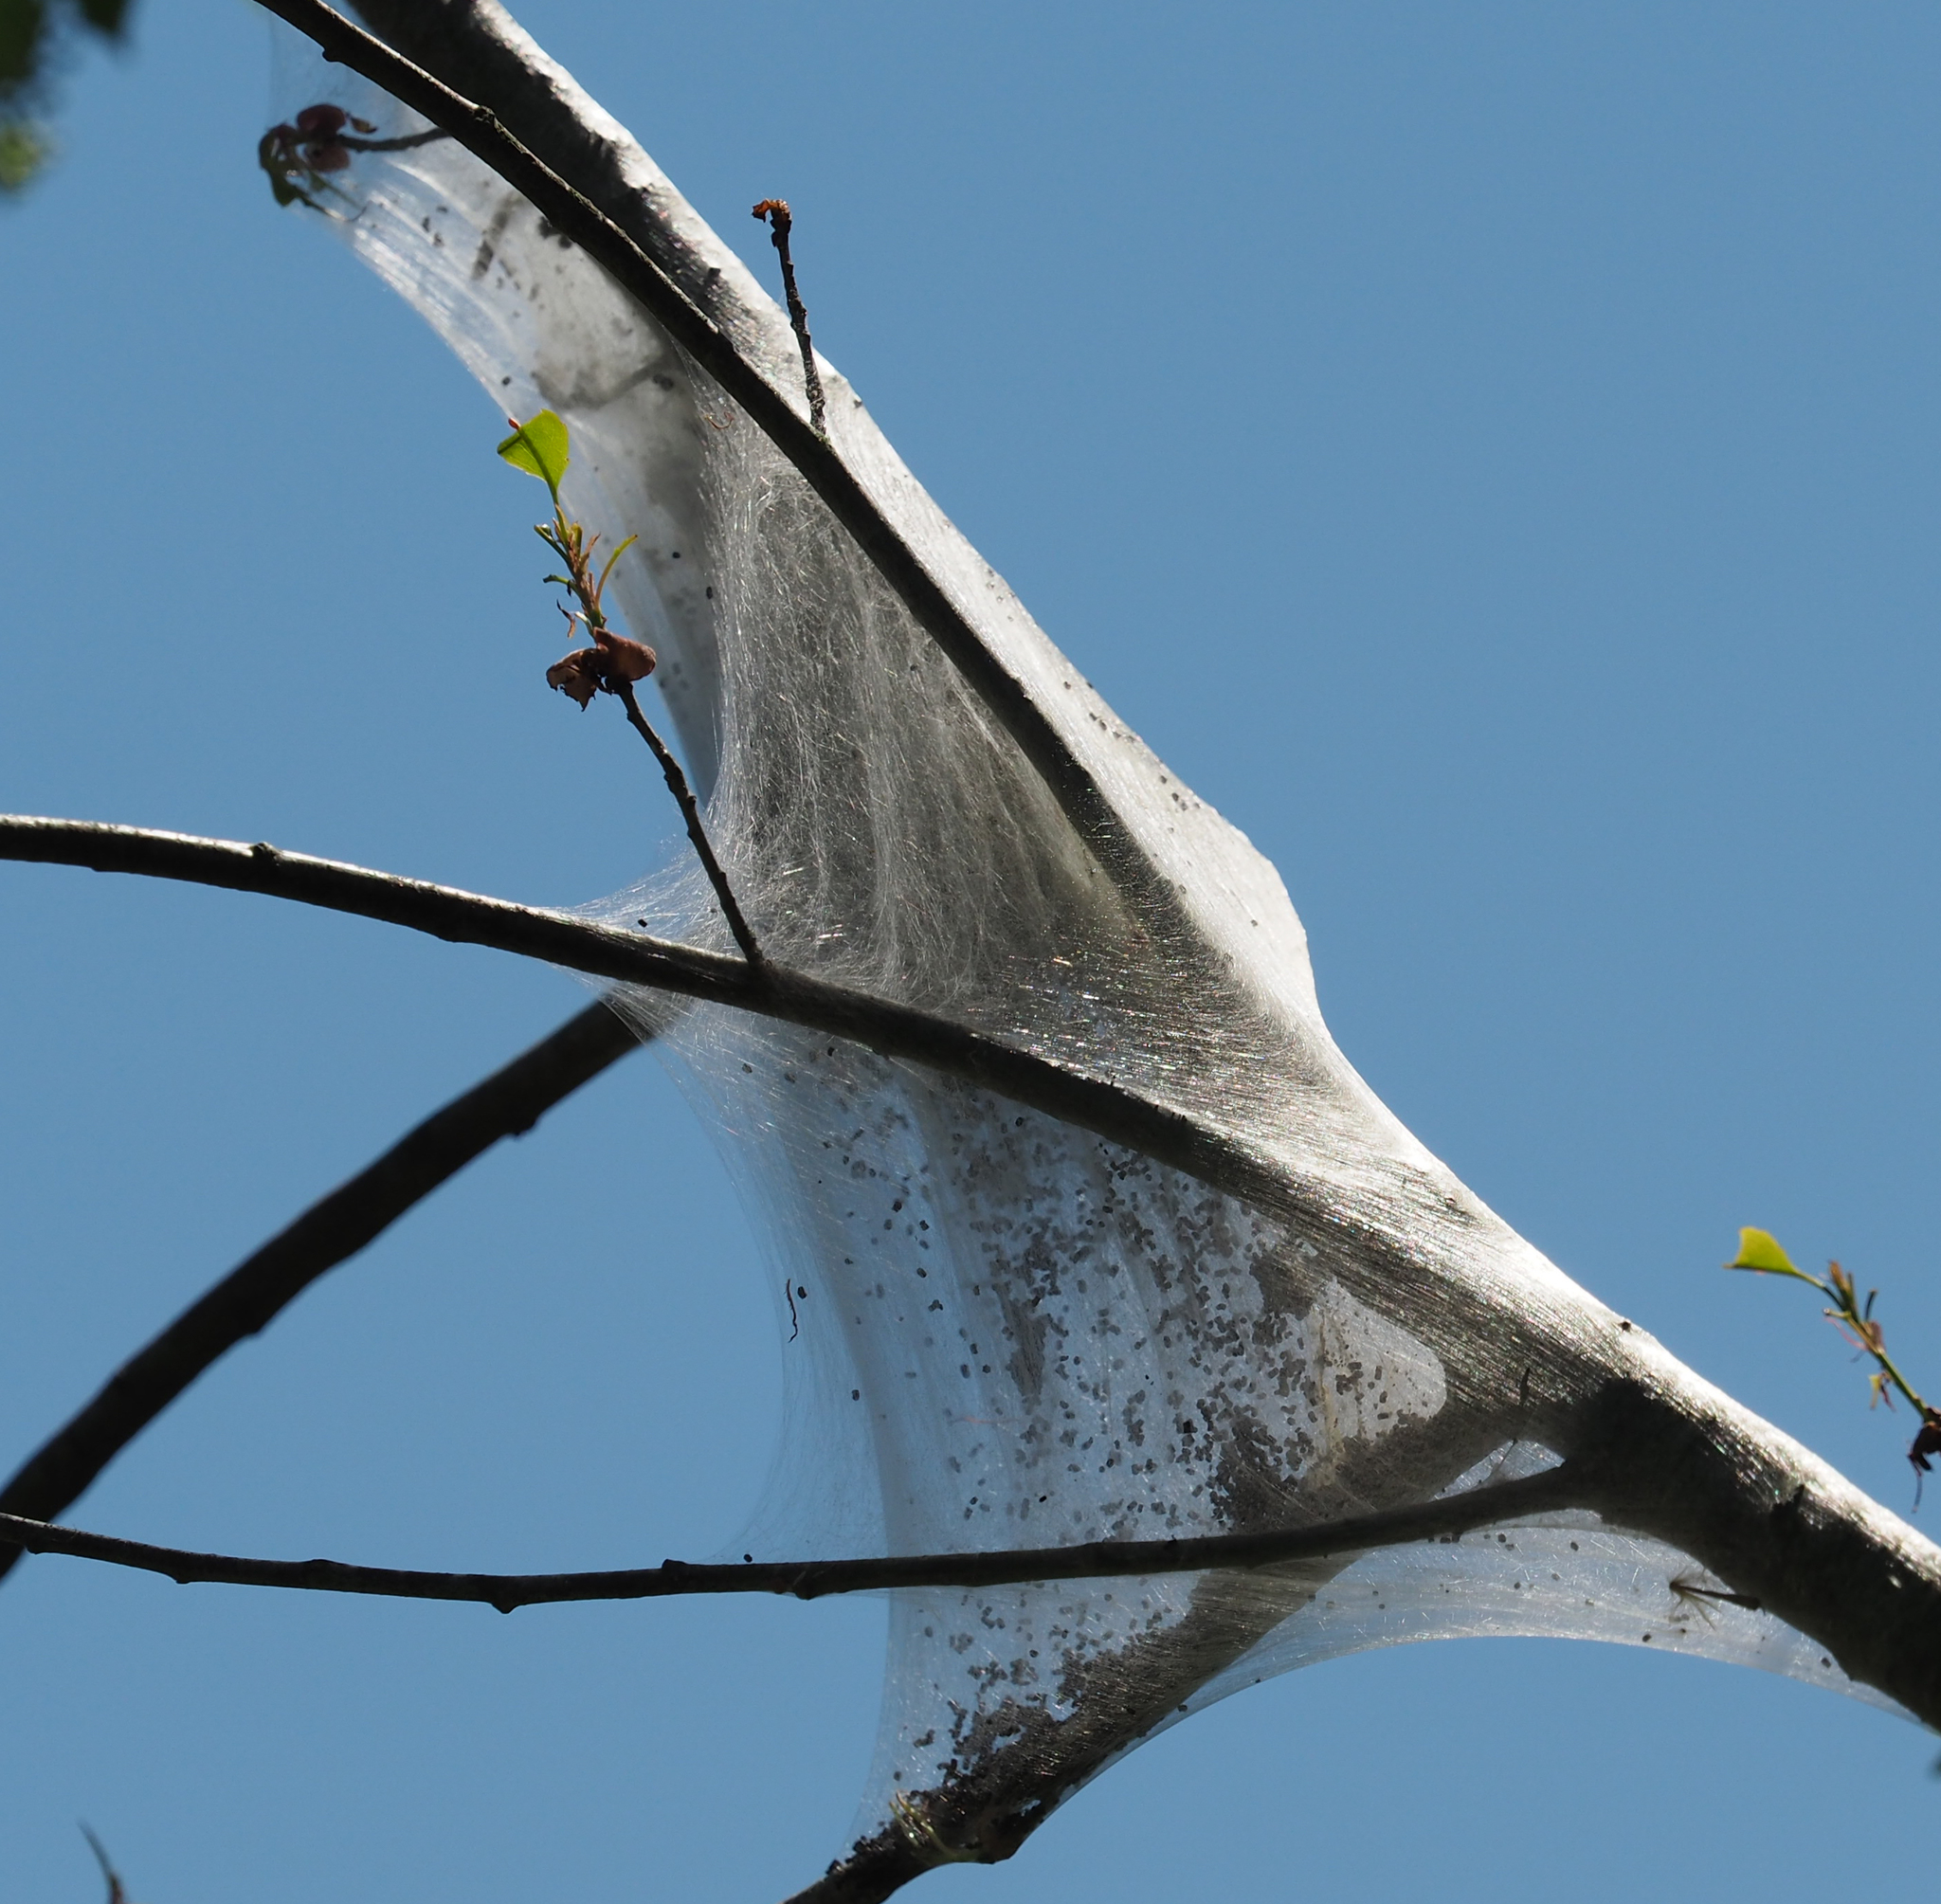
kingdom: Animalia
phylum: Arthropoda
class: Insecta
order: Lepidoptera
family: Lasiocampidae
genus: Malacosoma
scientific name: Malacosoma americana
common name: Eastern tent caterpillar moth
